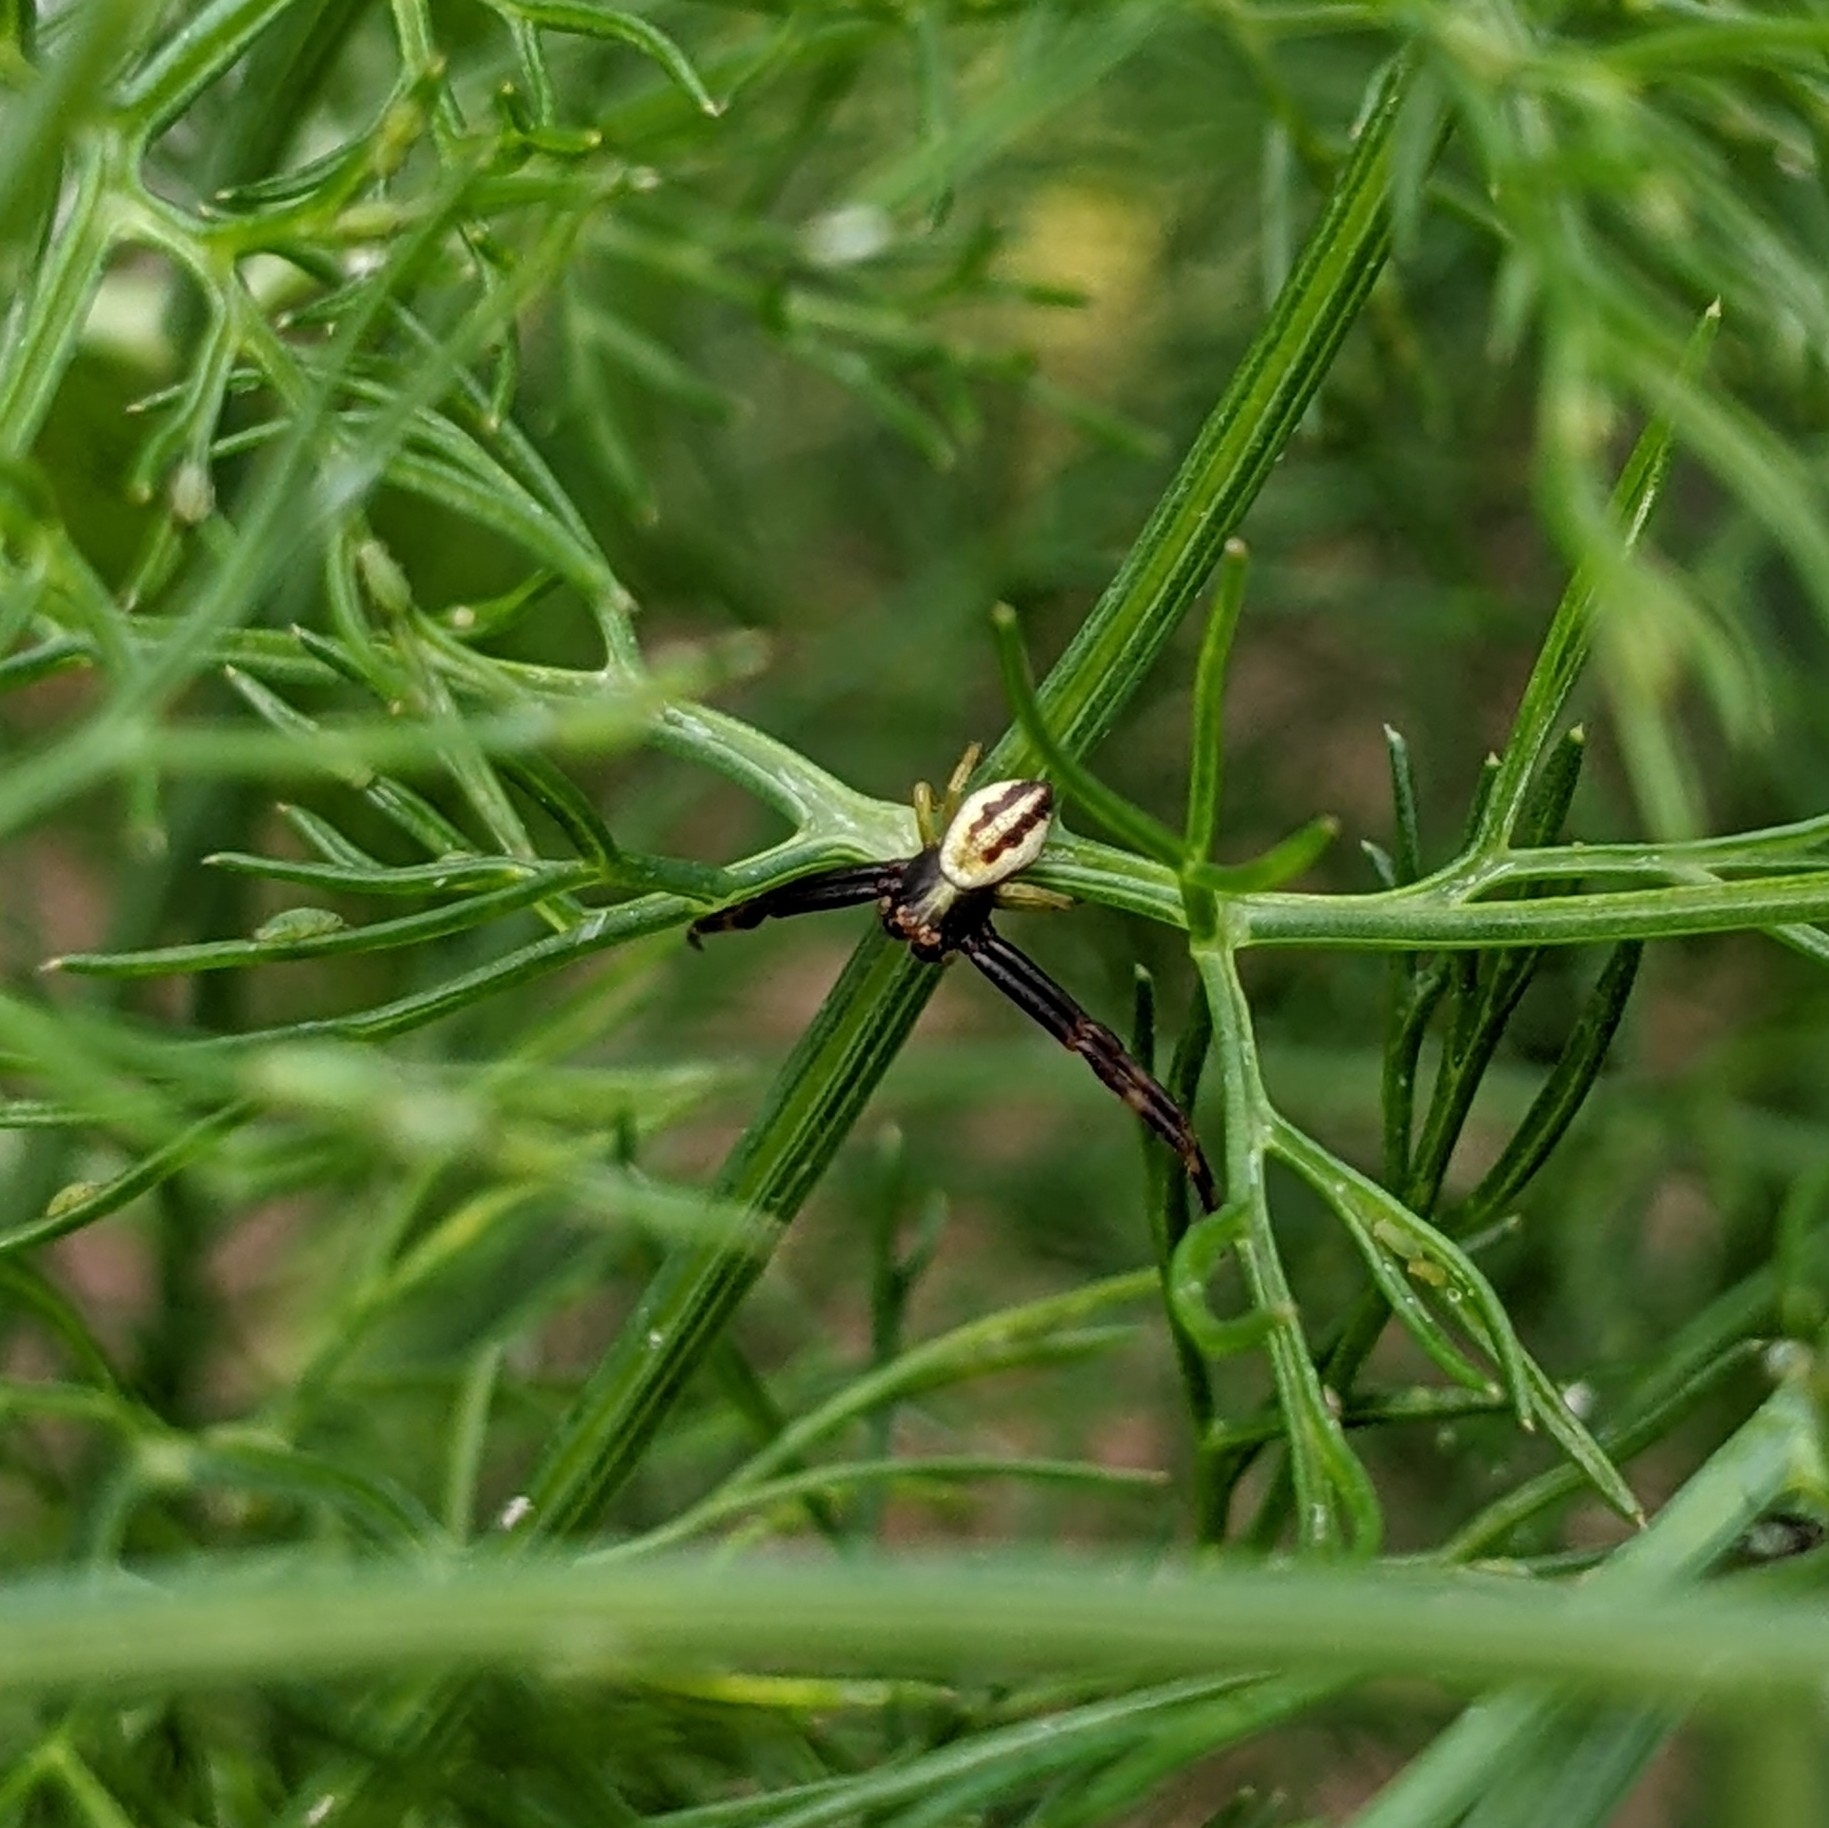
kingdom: Animalia
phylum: Arthropoda
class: Arachnida
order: Araneae
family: Thomisidae
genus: Misumena
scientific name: Misumena vatia
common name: Goldenrod crab spider
